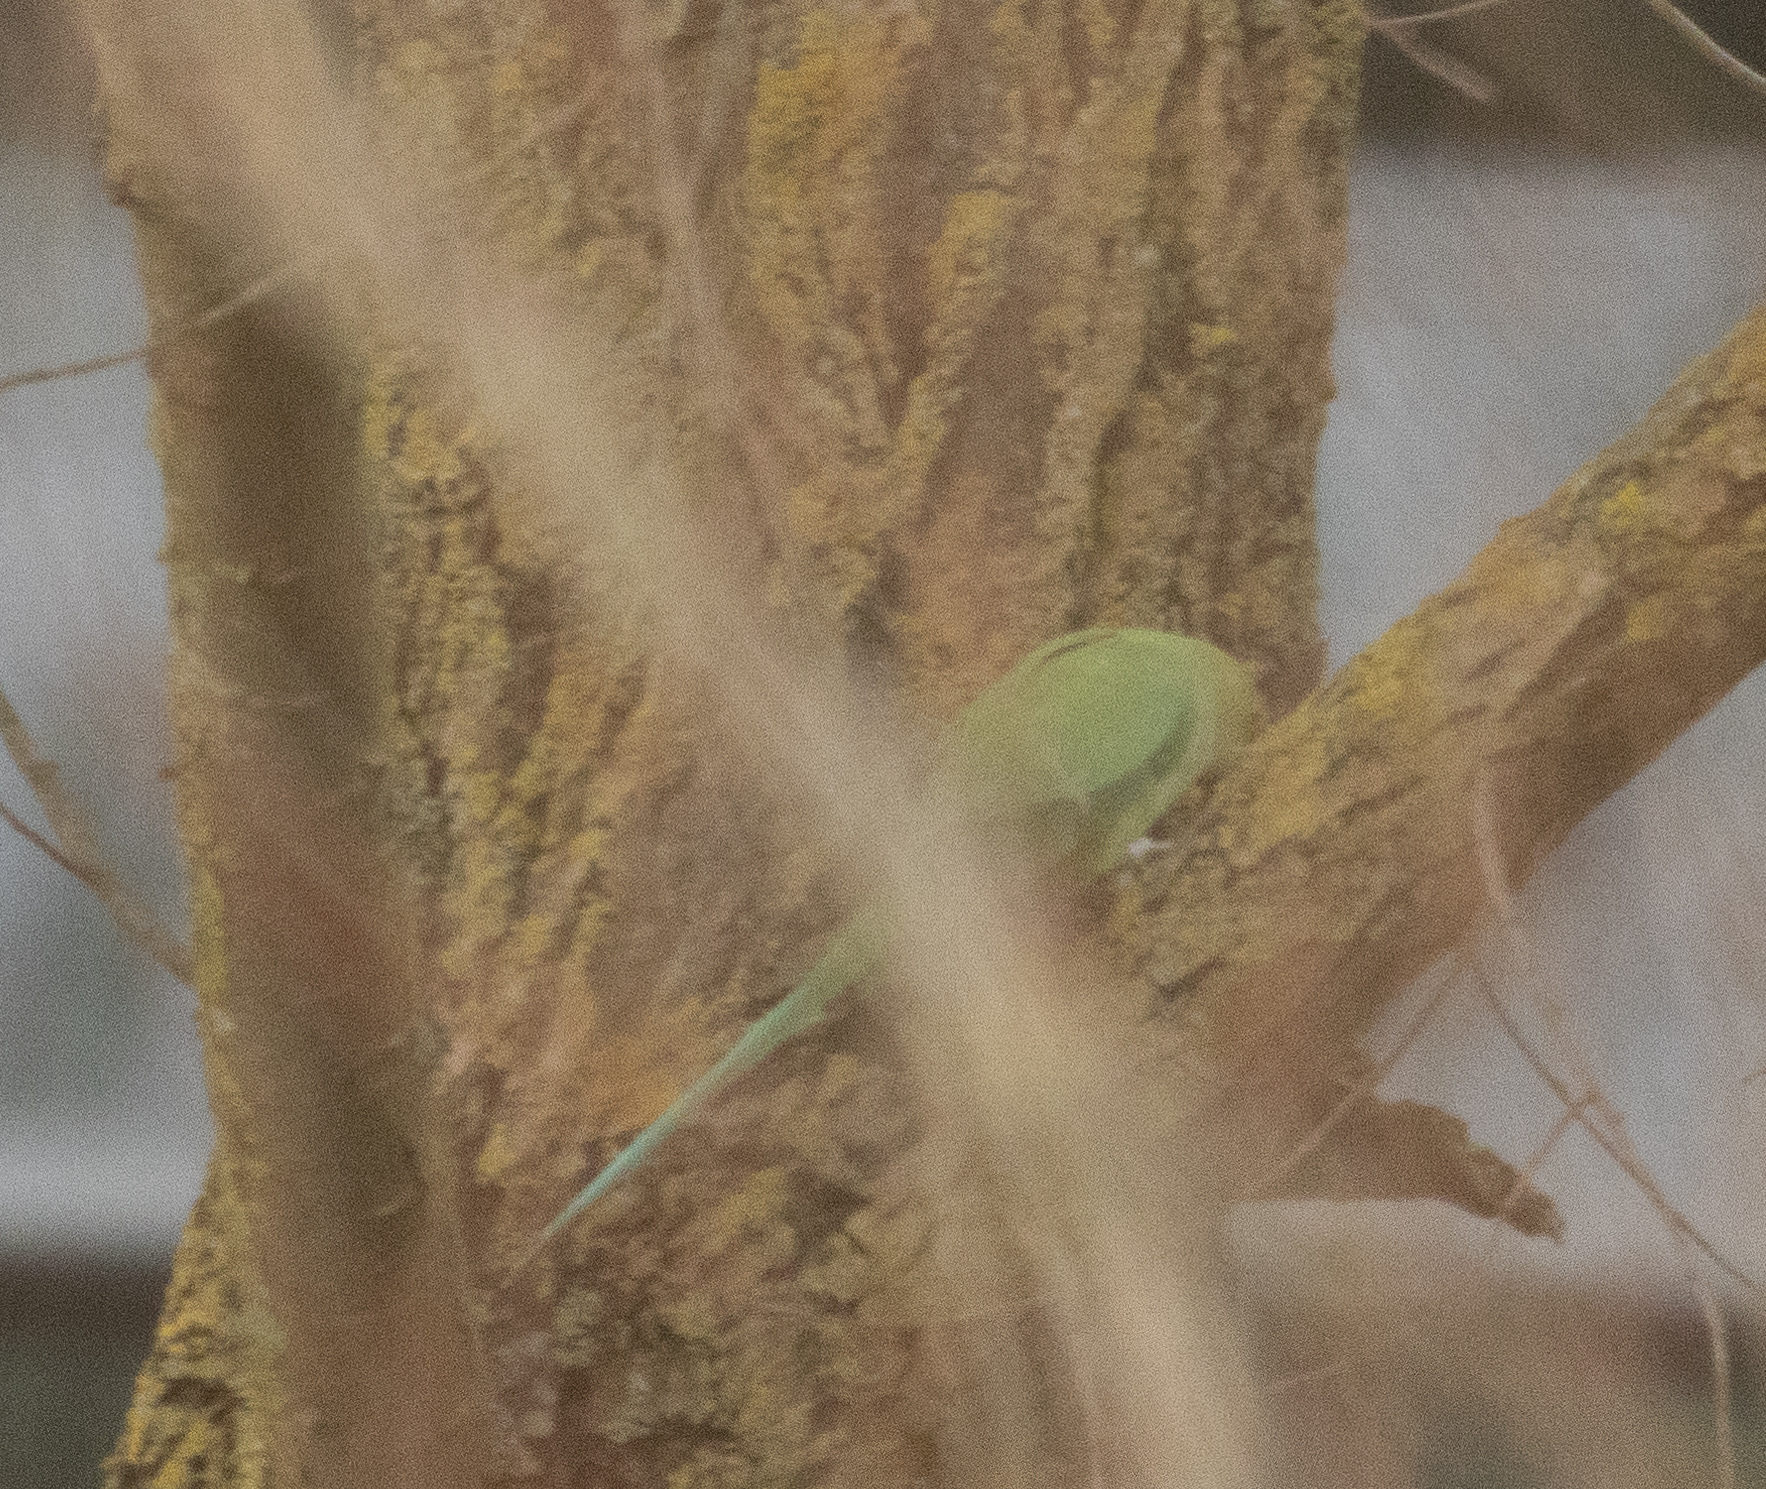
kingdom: Animalia
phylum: Chordata
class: Aves
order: Psittaciformes
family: Psittacidae
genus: Psittacula
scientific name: Psittacula krameri
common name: Rose-ringed parakeet
